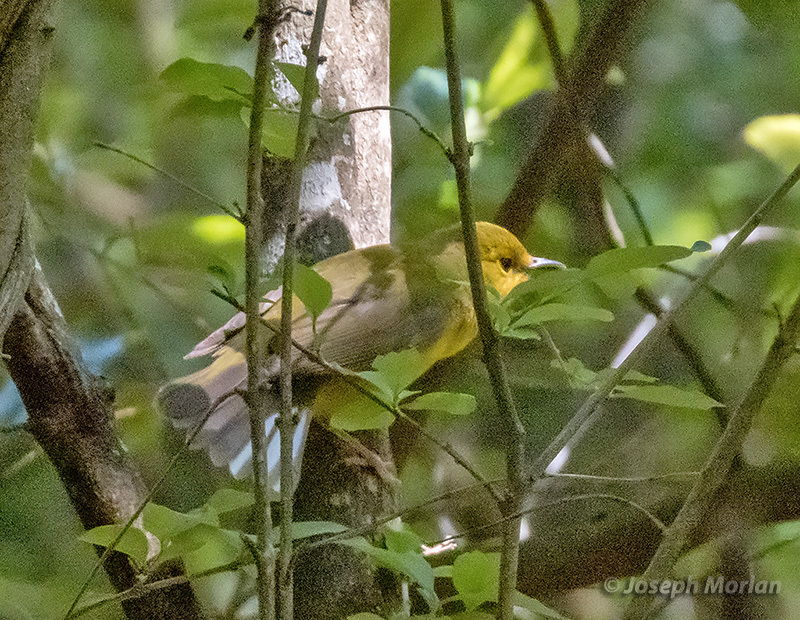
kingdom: Animalia
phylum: Chordata
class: Aves
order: Passeriformes
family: Parulidae
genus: Setophaga
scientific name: Setophaga citrina
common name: Hooded warbler
